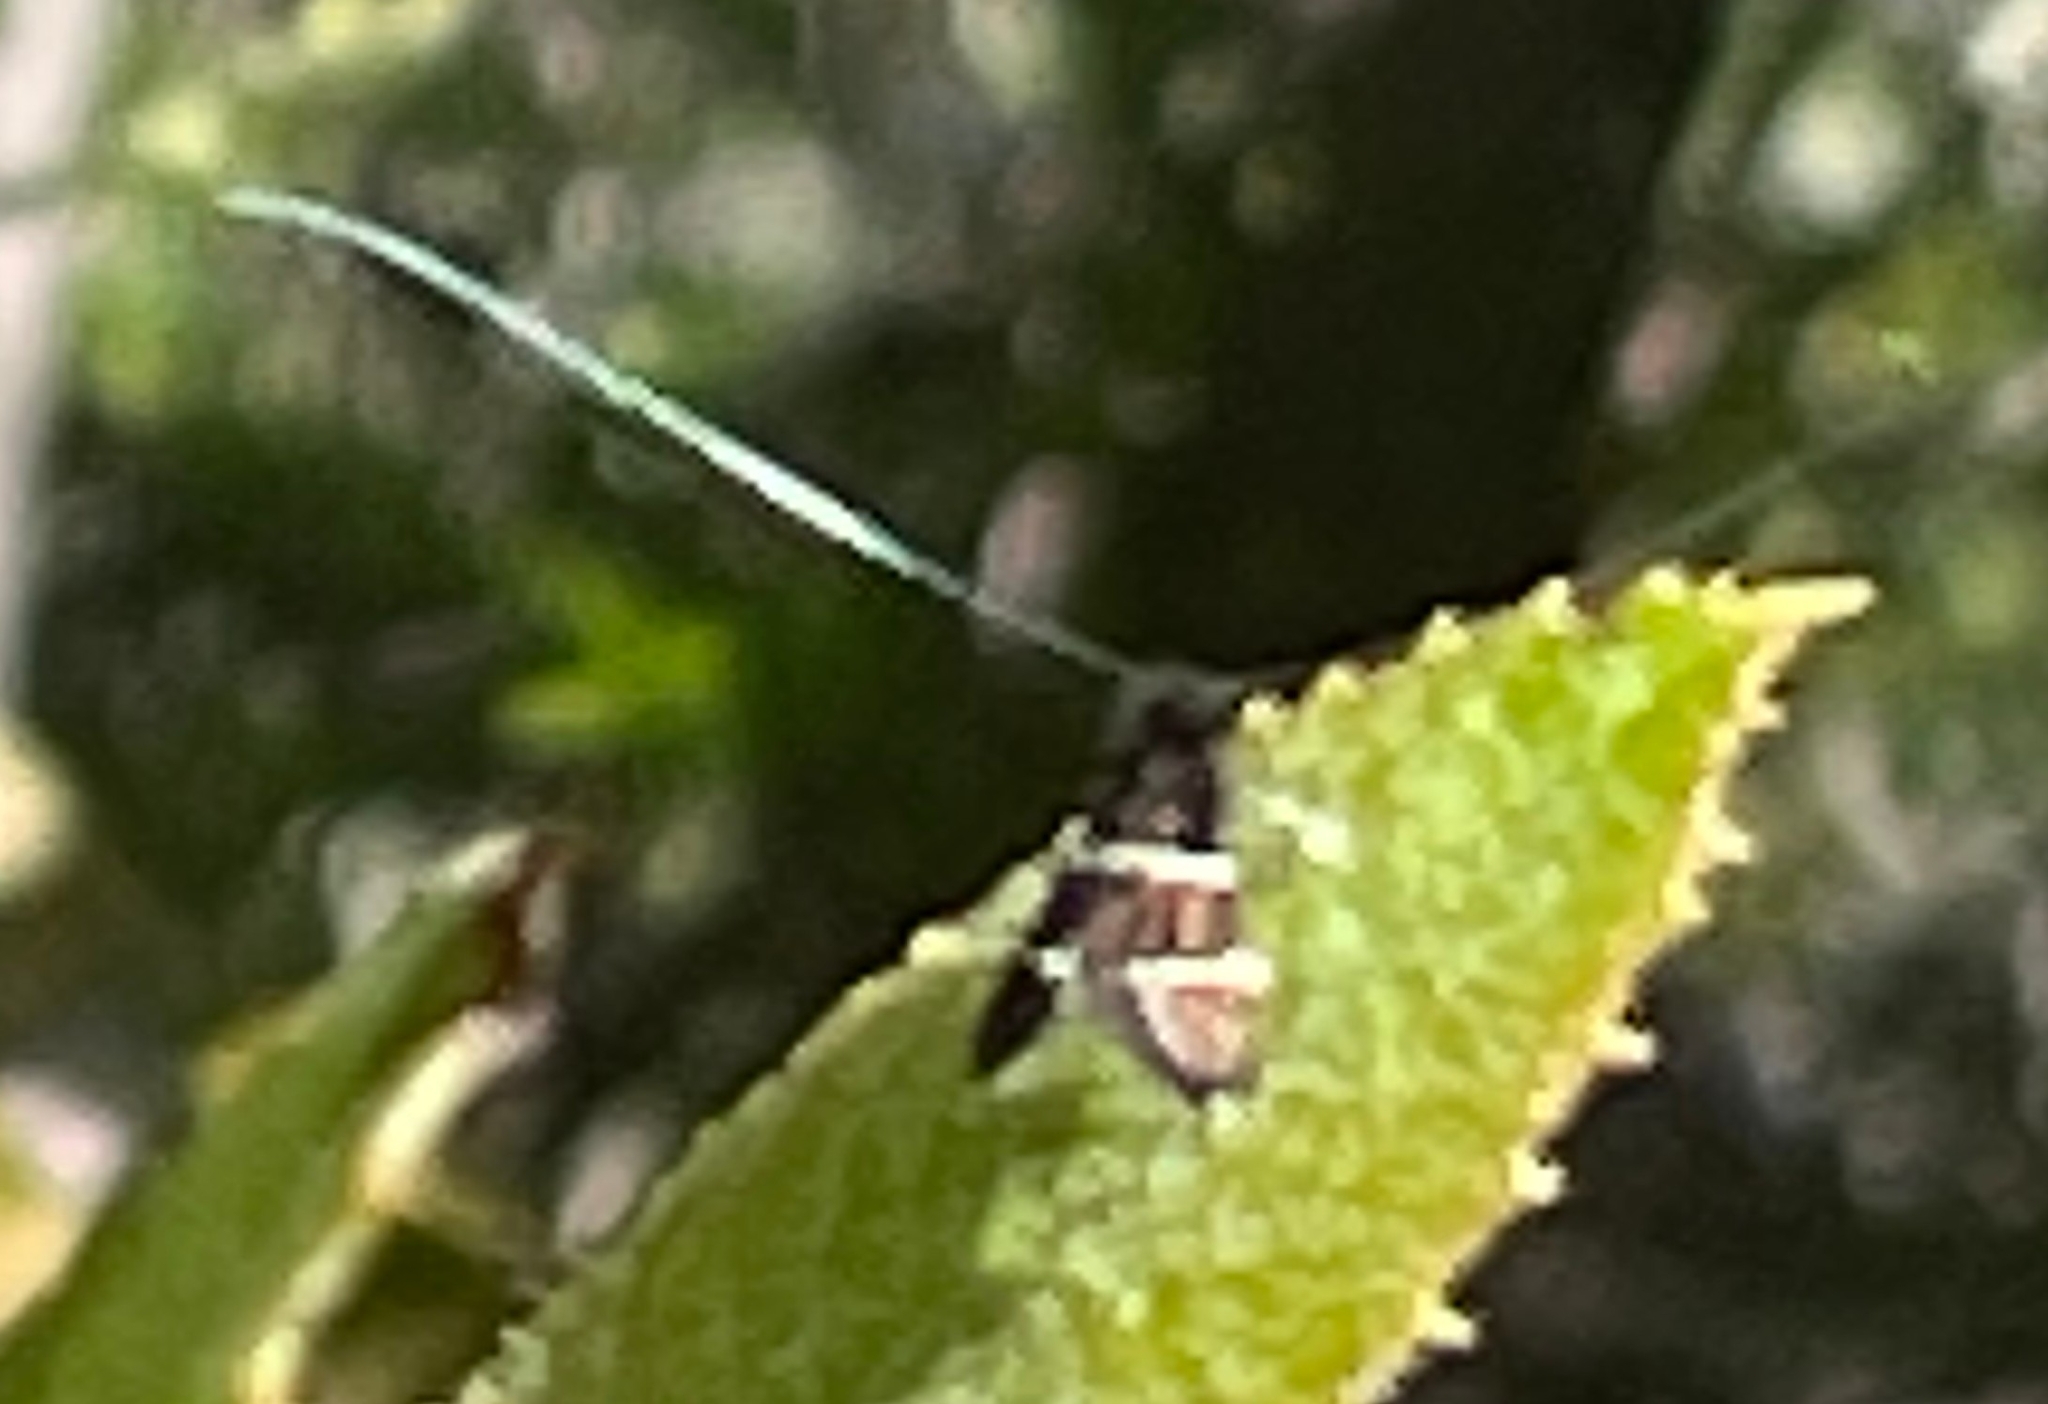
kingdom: Animalia
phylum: Arthropoda
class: Insecta
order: Lepidoptera
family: Adelidae
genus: Adela
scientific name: Adela septentrionella
